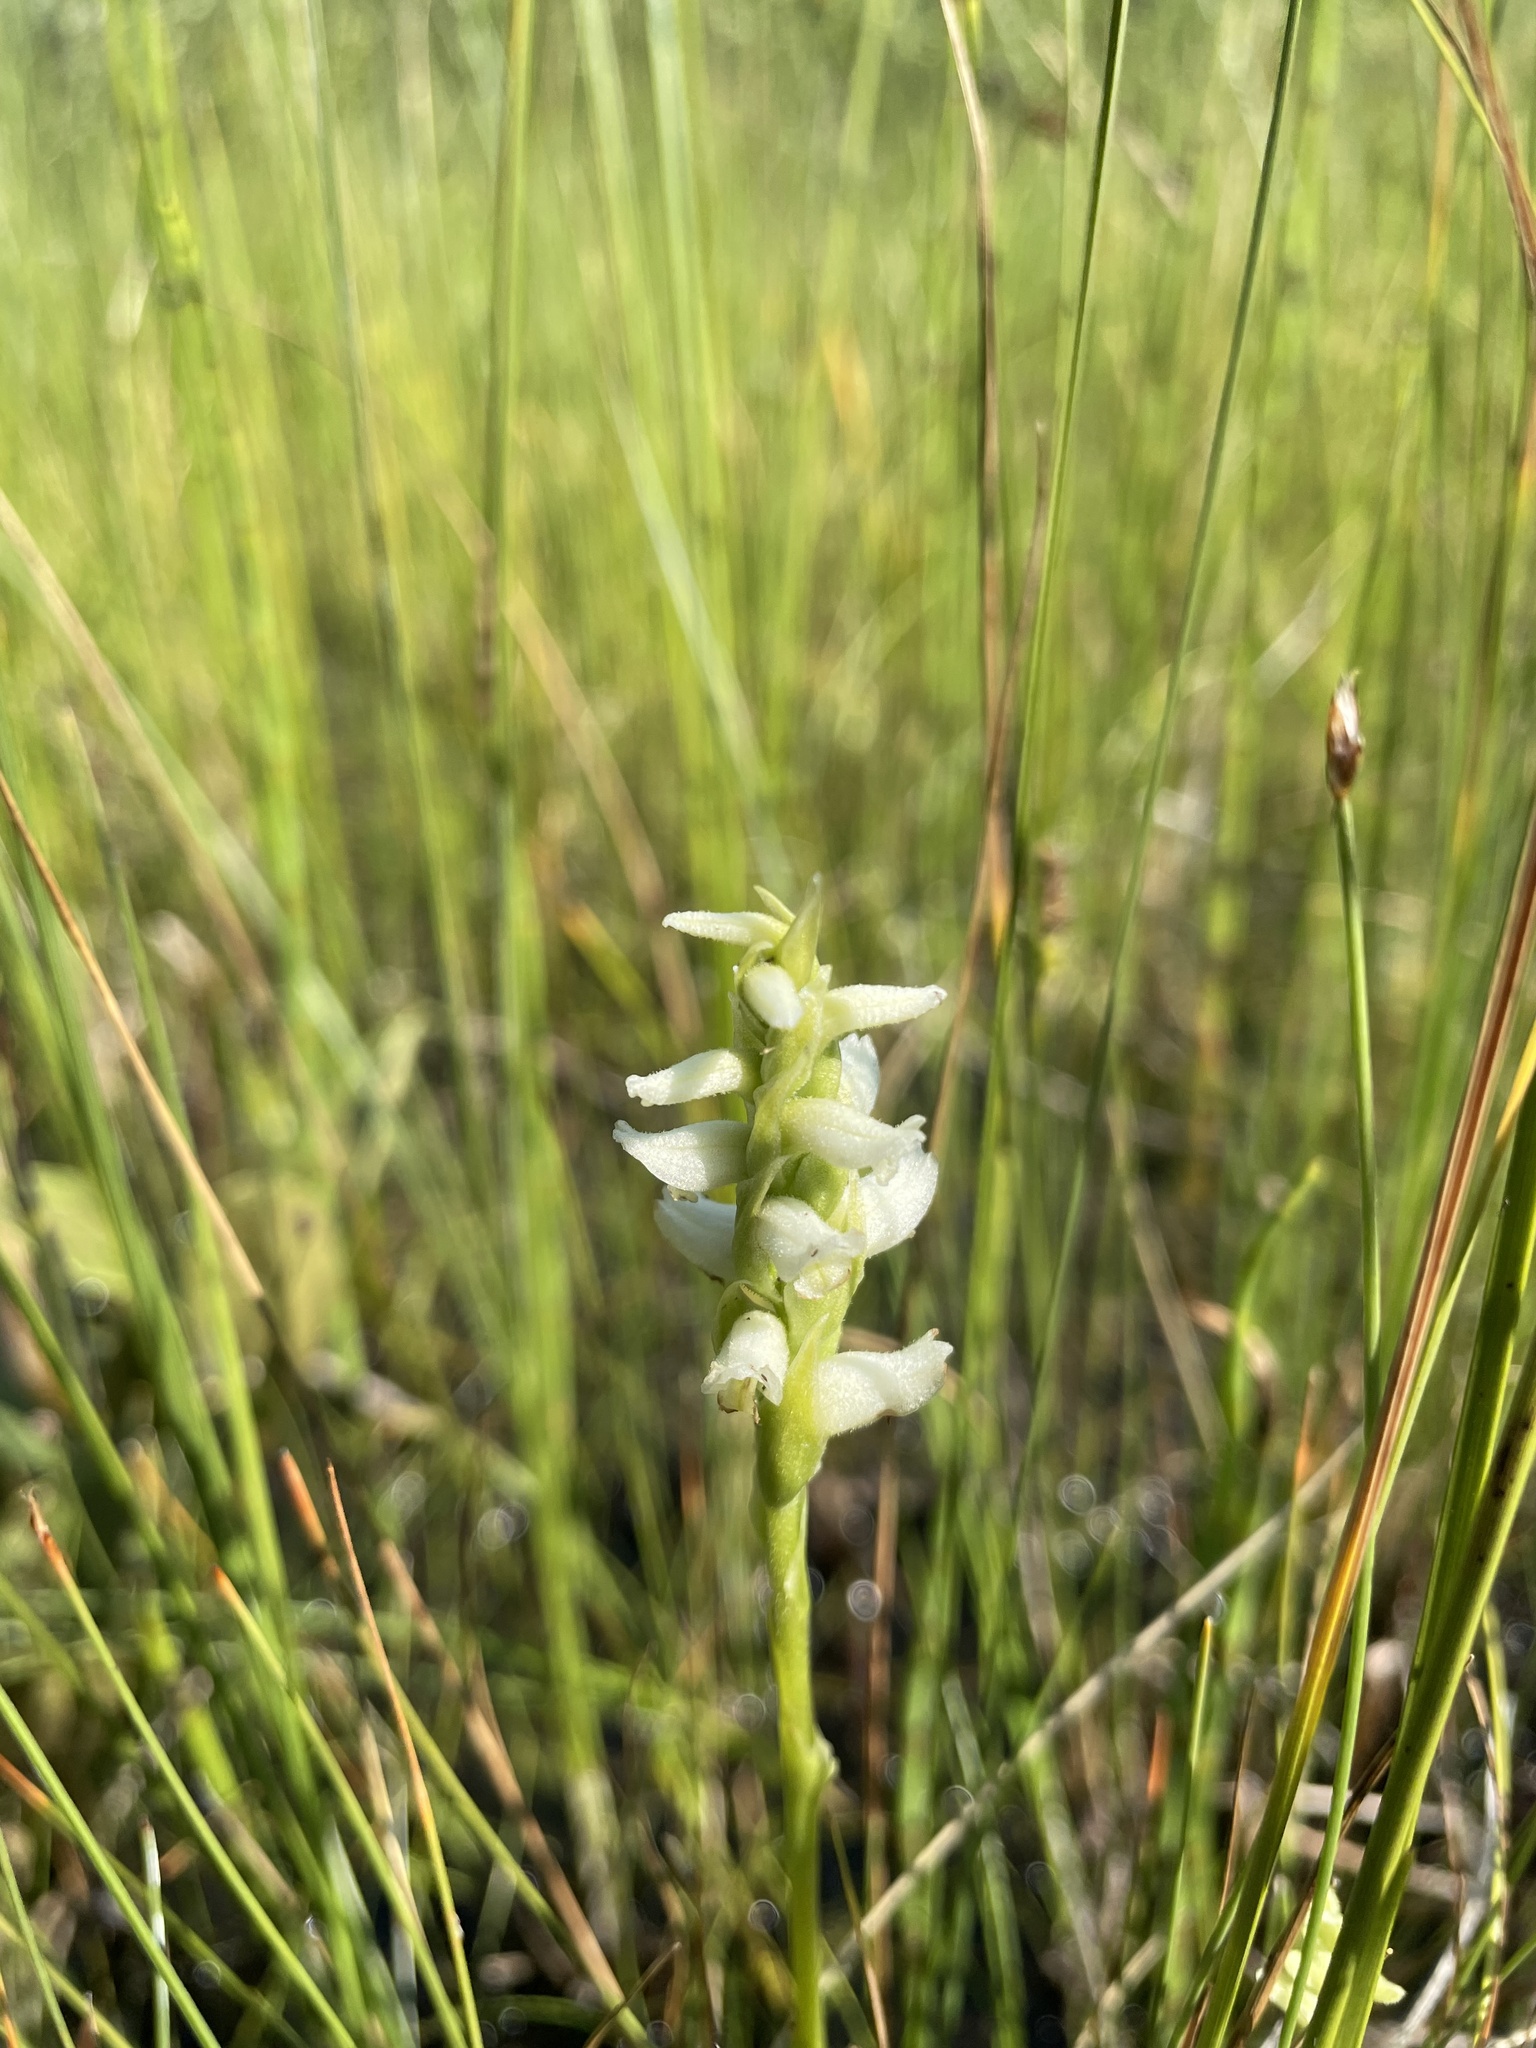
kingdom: Plantae
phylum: Tracheophyta
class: Liliopsida
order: Asparagales
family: Orchidaceae
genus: Spiranthes
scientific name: Spiranthes romanzoffiana
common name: Irish lady's-tresses
